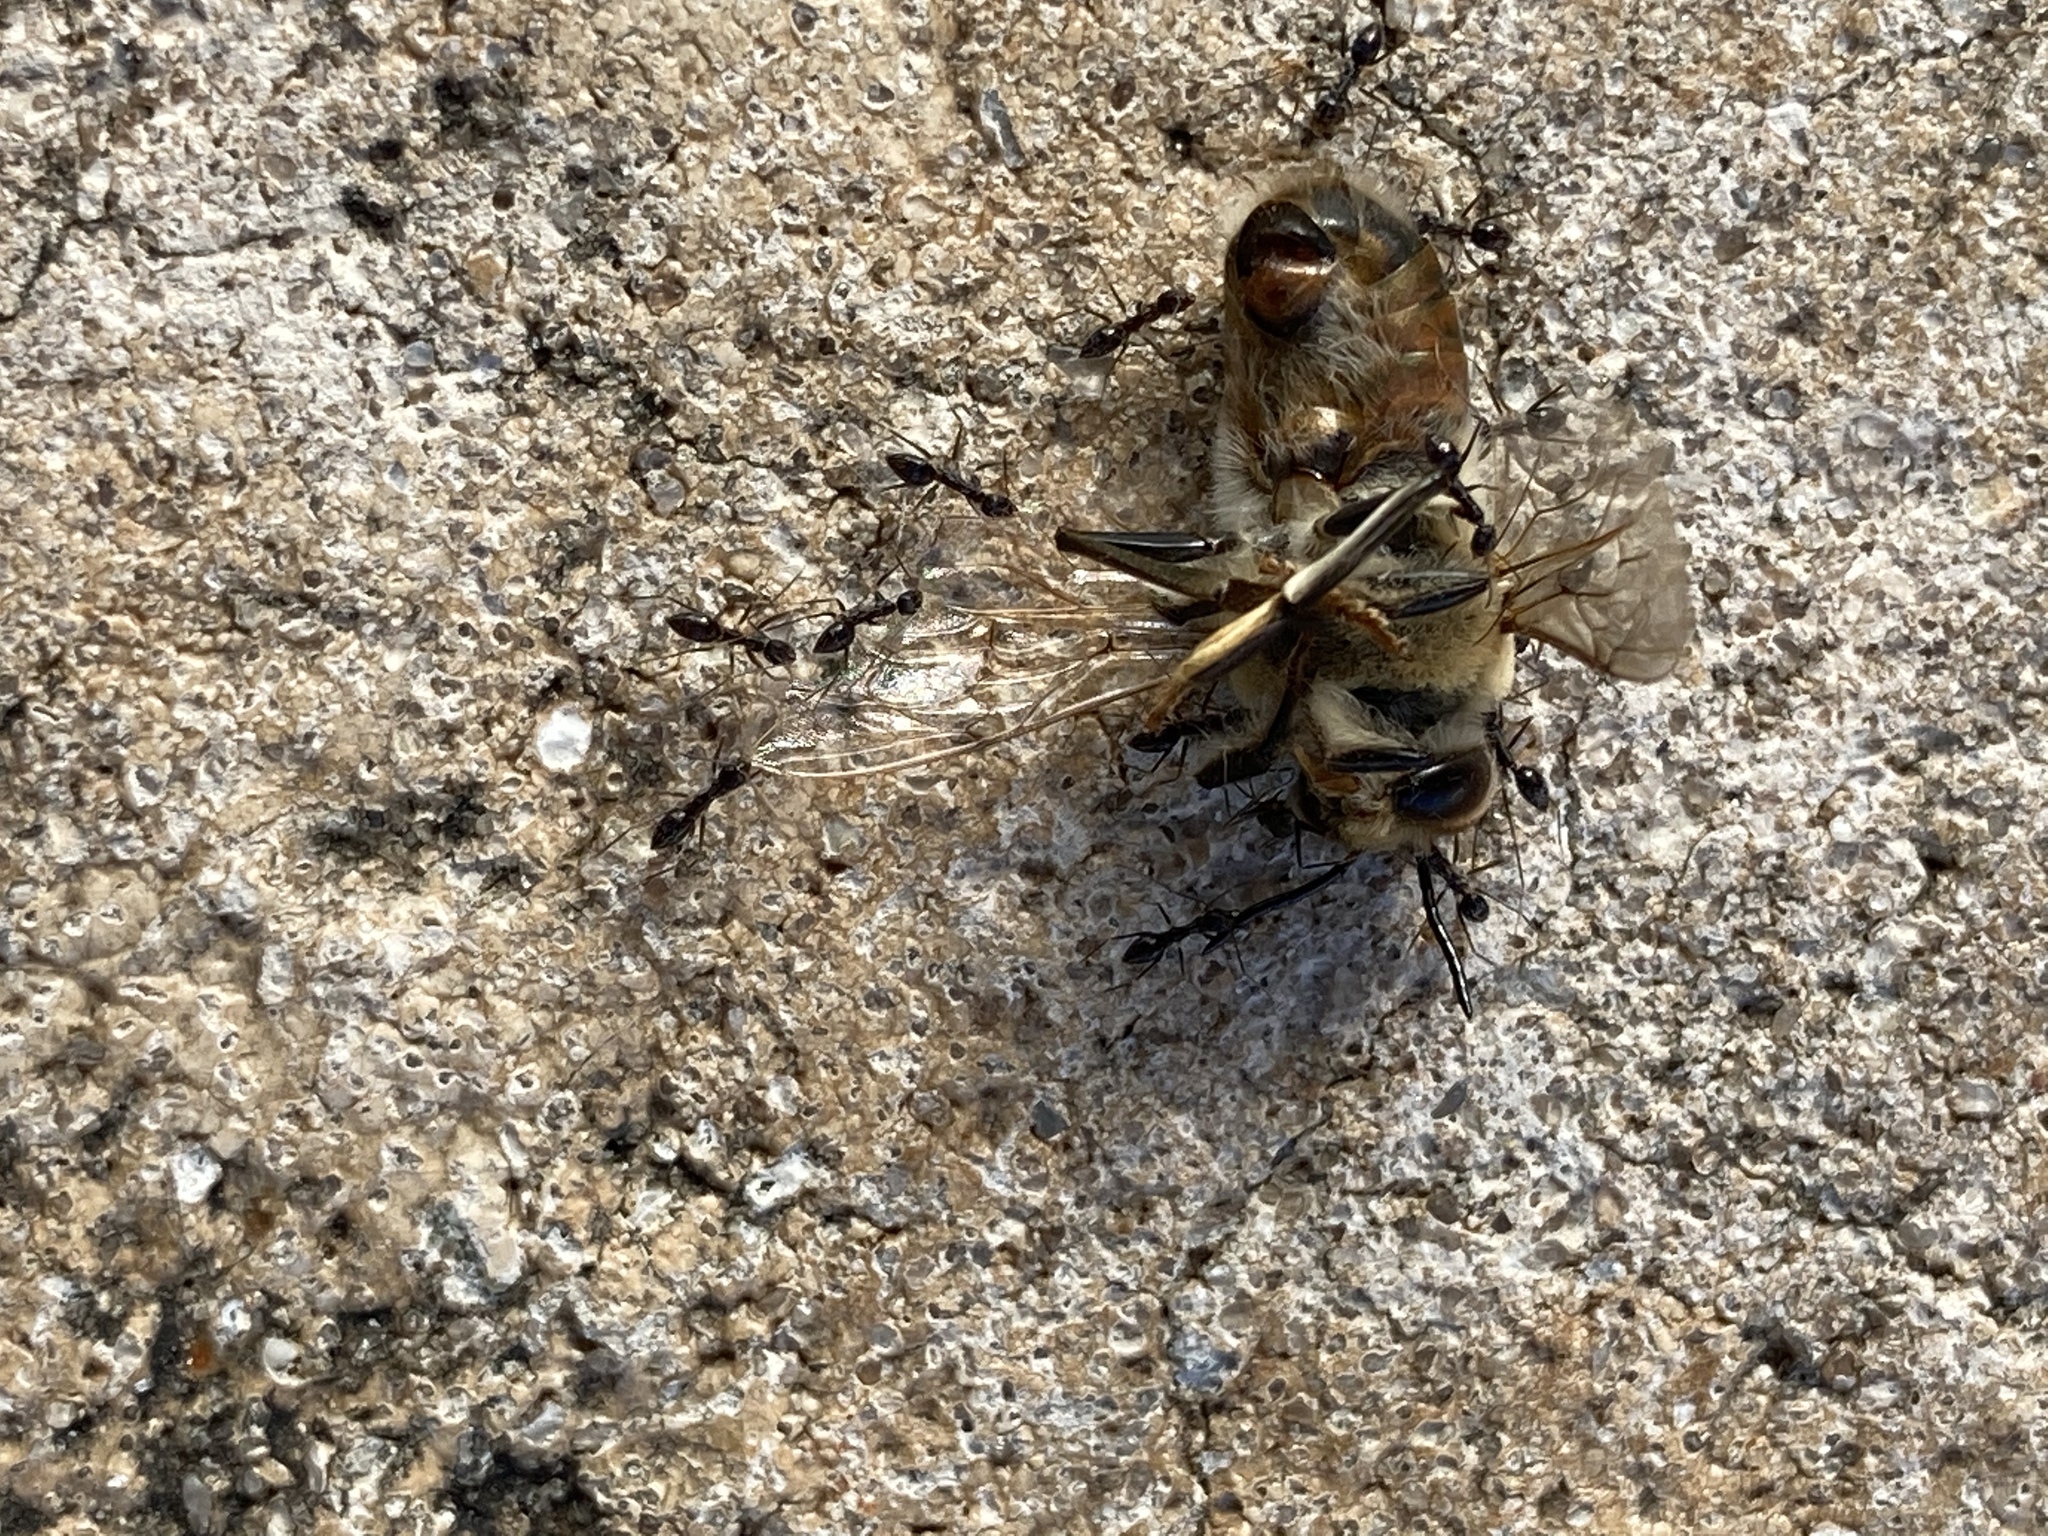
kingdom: Animalia
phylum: Arthropoda
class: Insecta
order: Hymenoptera
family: Apidae
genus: Apis
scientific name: Apis mellifera
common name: Honey bee
